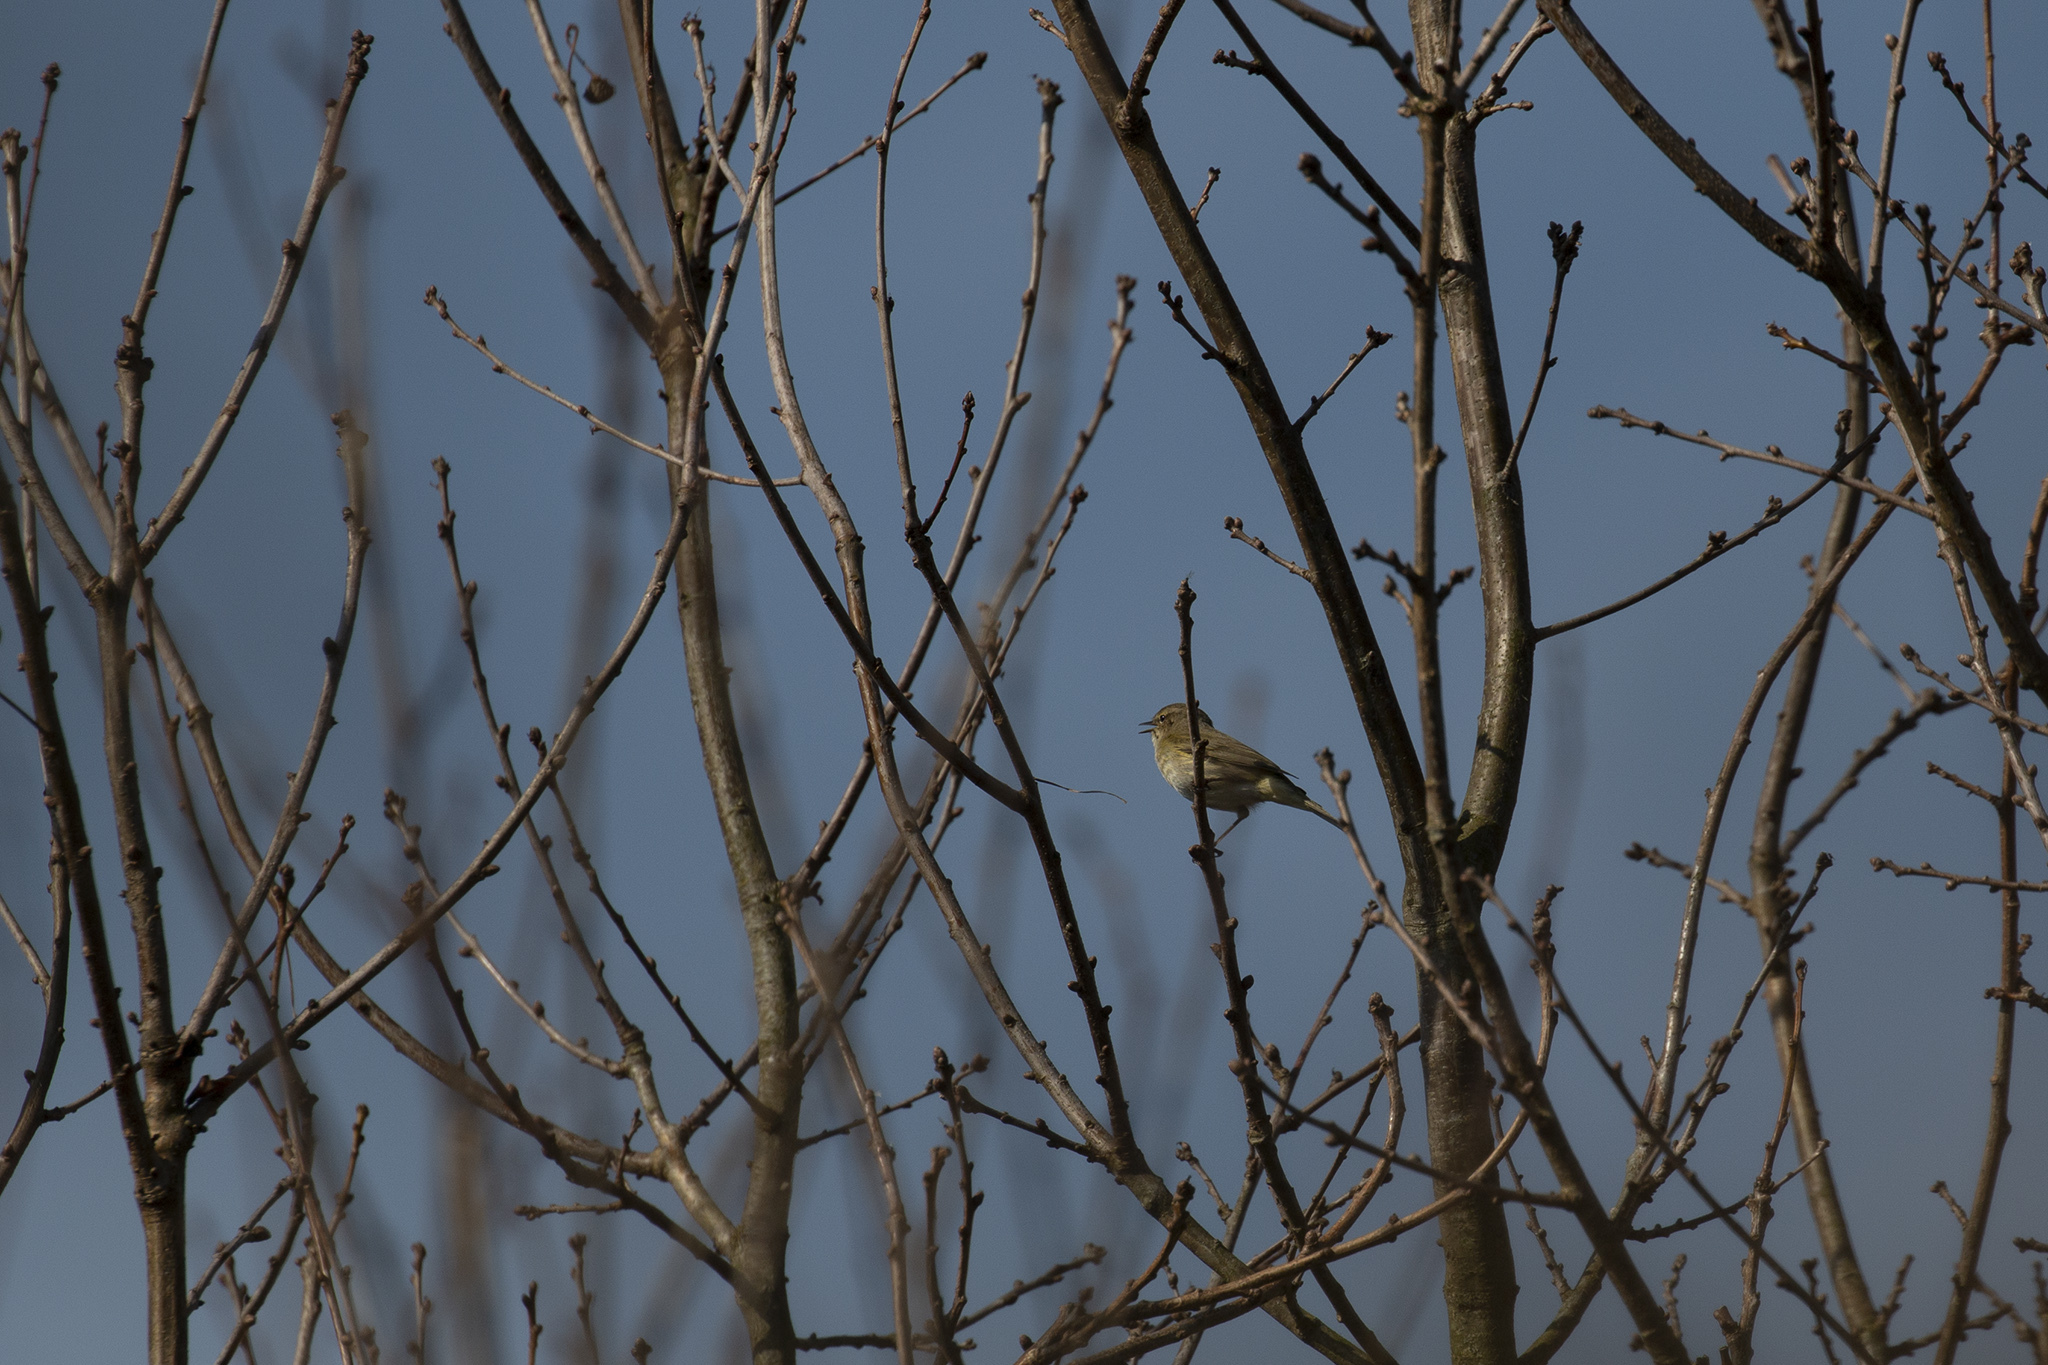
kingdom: Animalia
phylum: Chordata
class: Aves
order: Passeriformes
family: Phylloscopidae
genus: Phylloscopus
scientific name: Phylloscopus collybita
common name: Common chiffchaff
